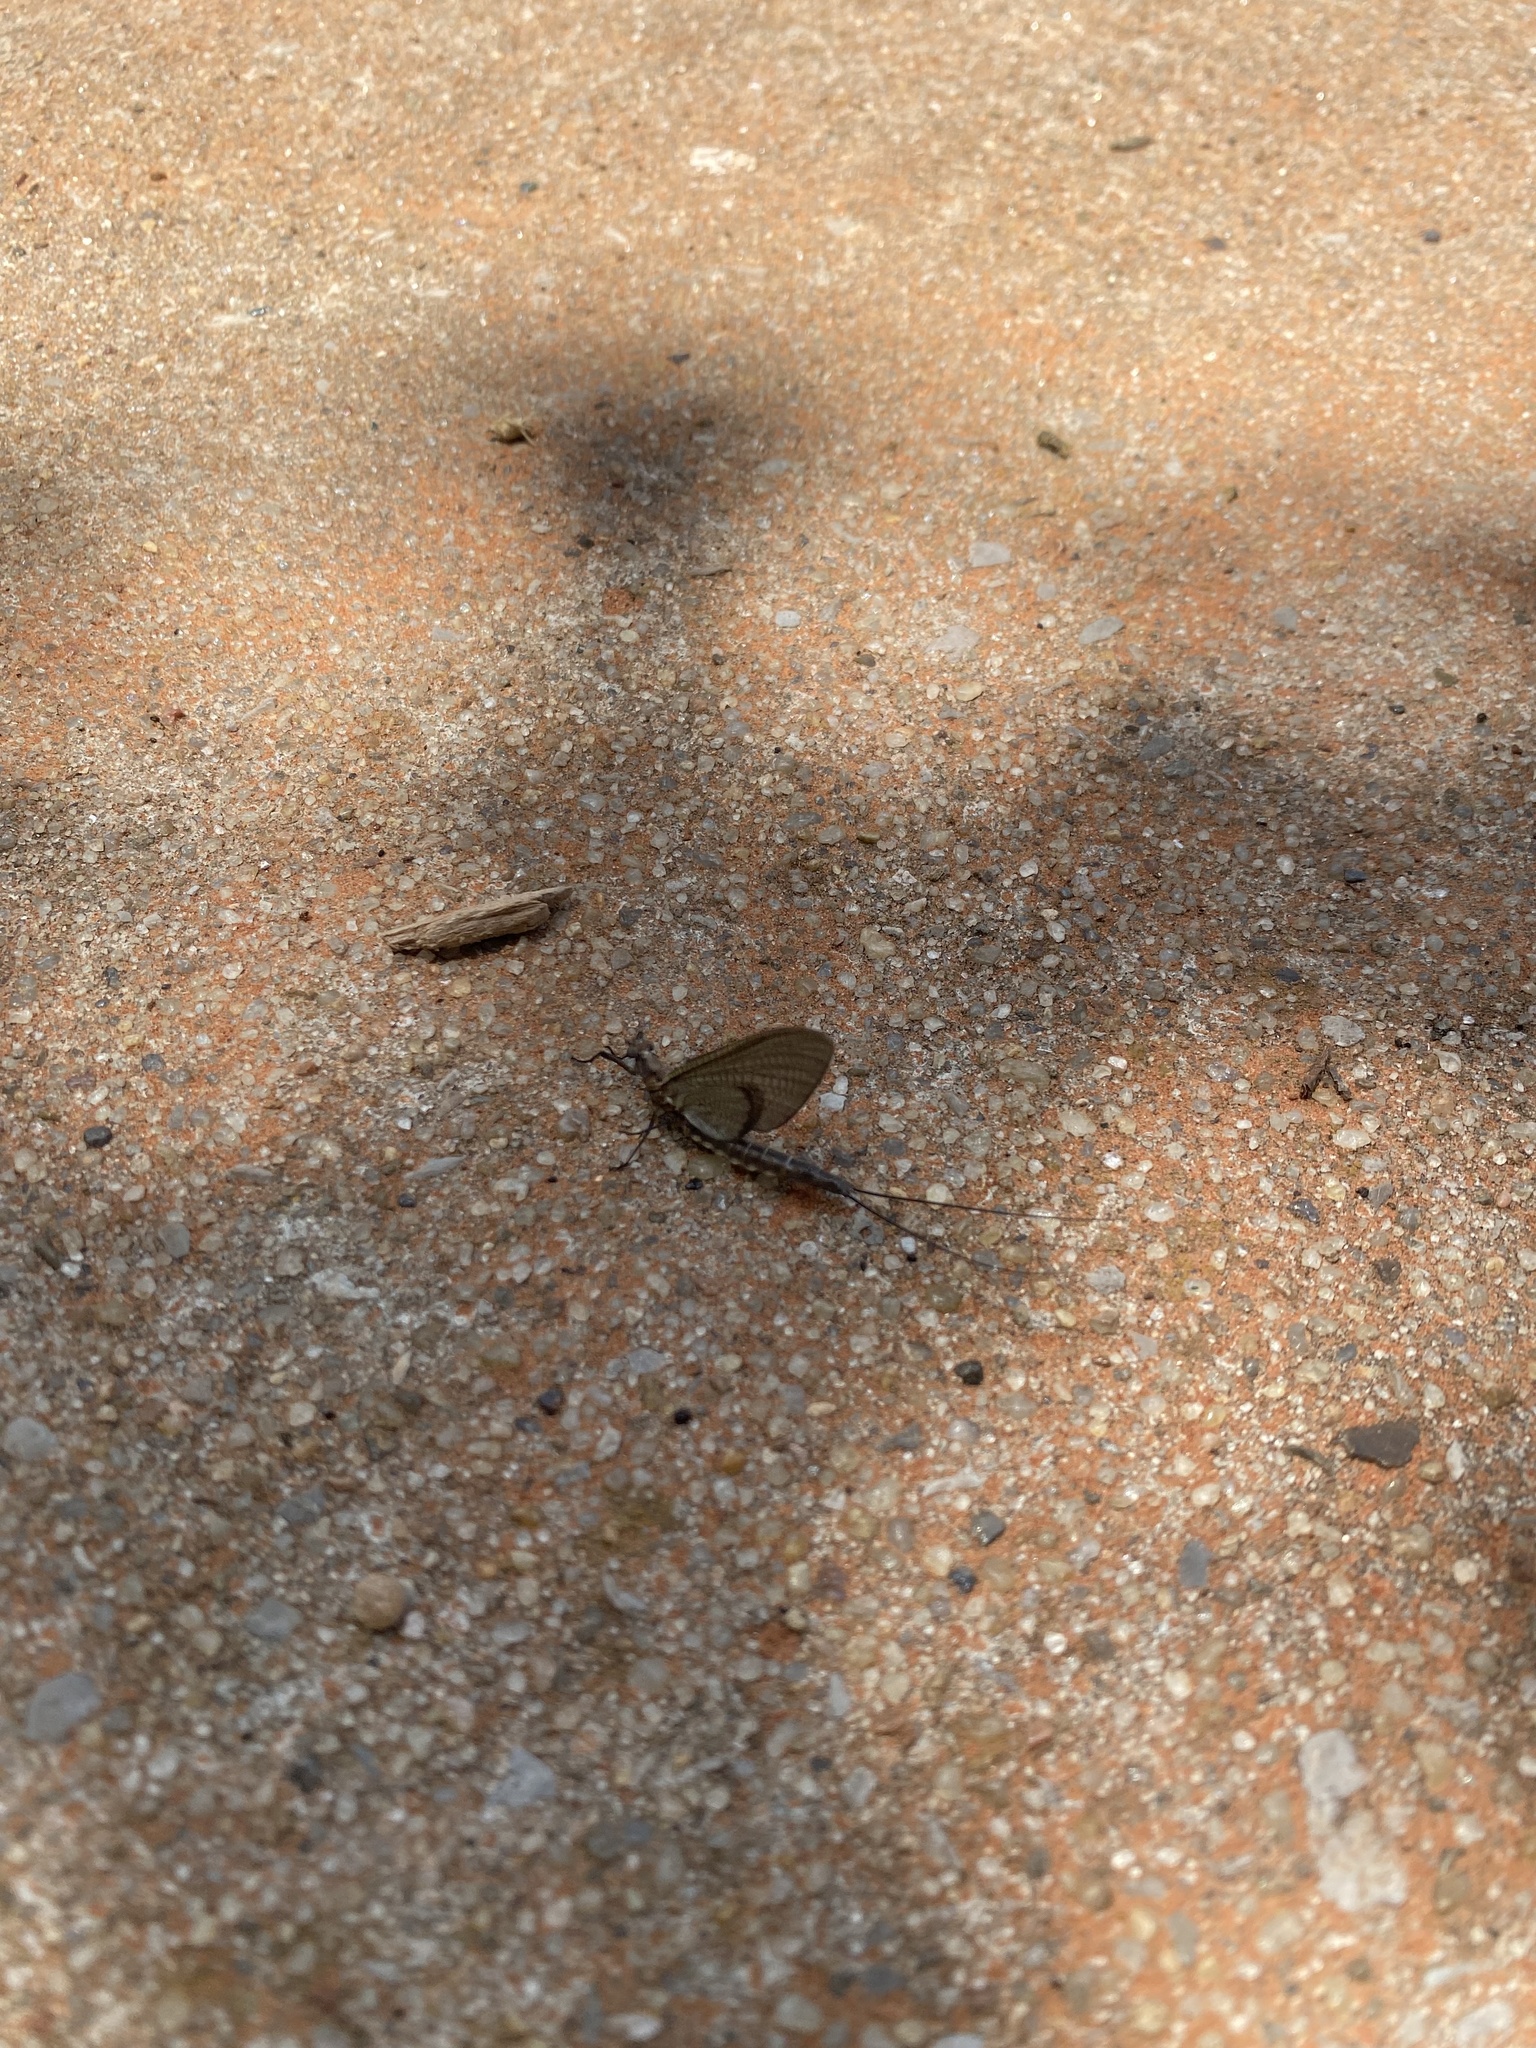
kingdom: Animalia
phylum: Arthropoda
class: Insecta
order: Ephemeroptera
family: Ephemeridae
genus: Hexagenia
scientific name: Hexagenia atrocaudata
